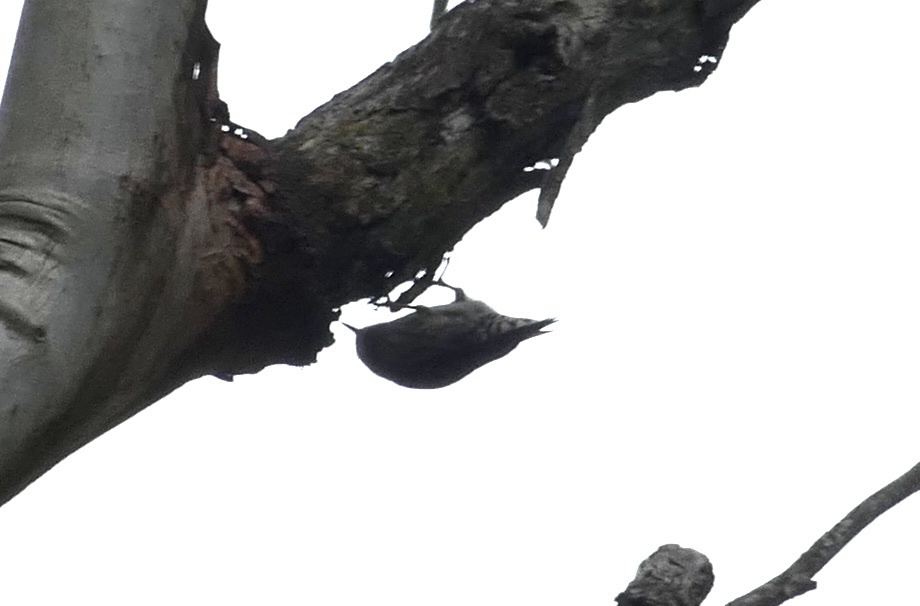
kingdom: Animalia
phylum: Chordata
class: Aves
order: Passeriformes
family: Neosittidae
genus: Daphoenositta
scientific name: Daphoenositta chrysoptera
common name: Varied sittella
